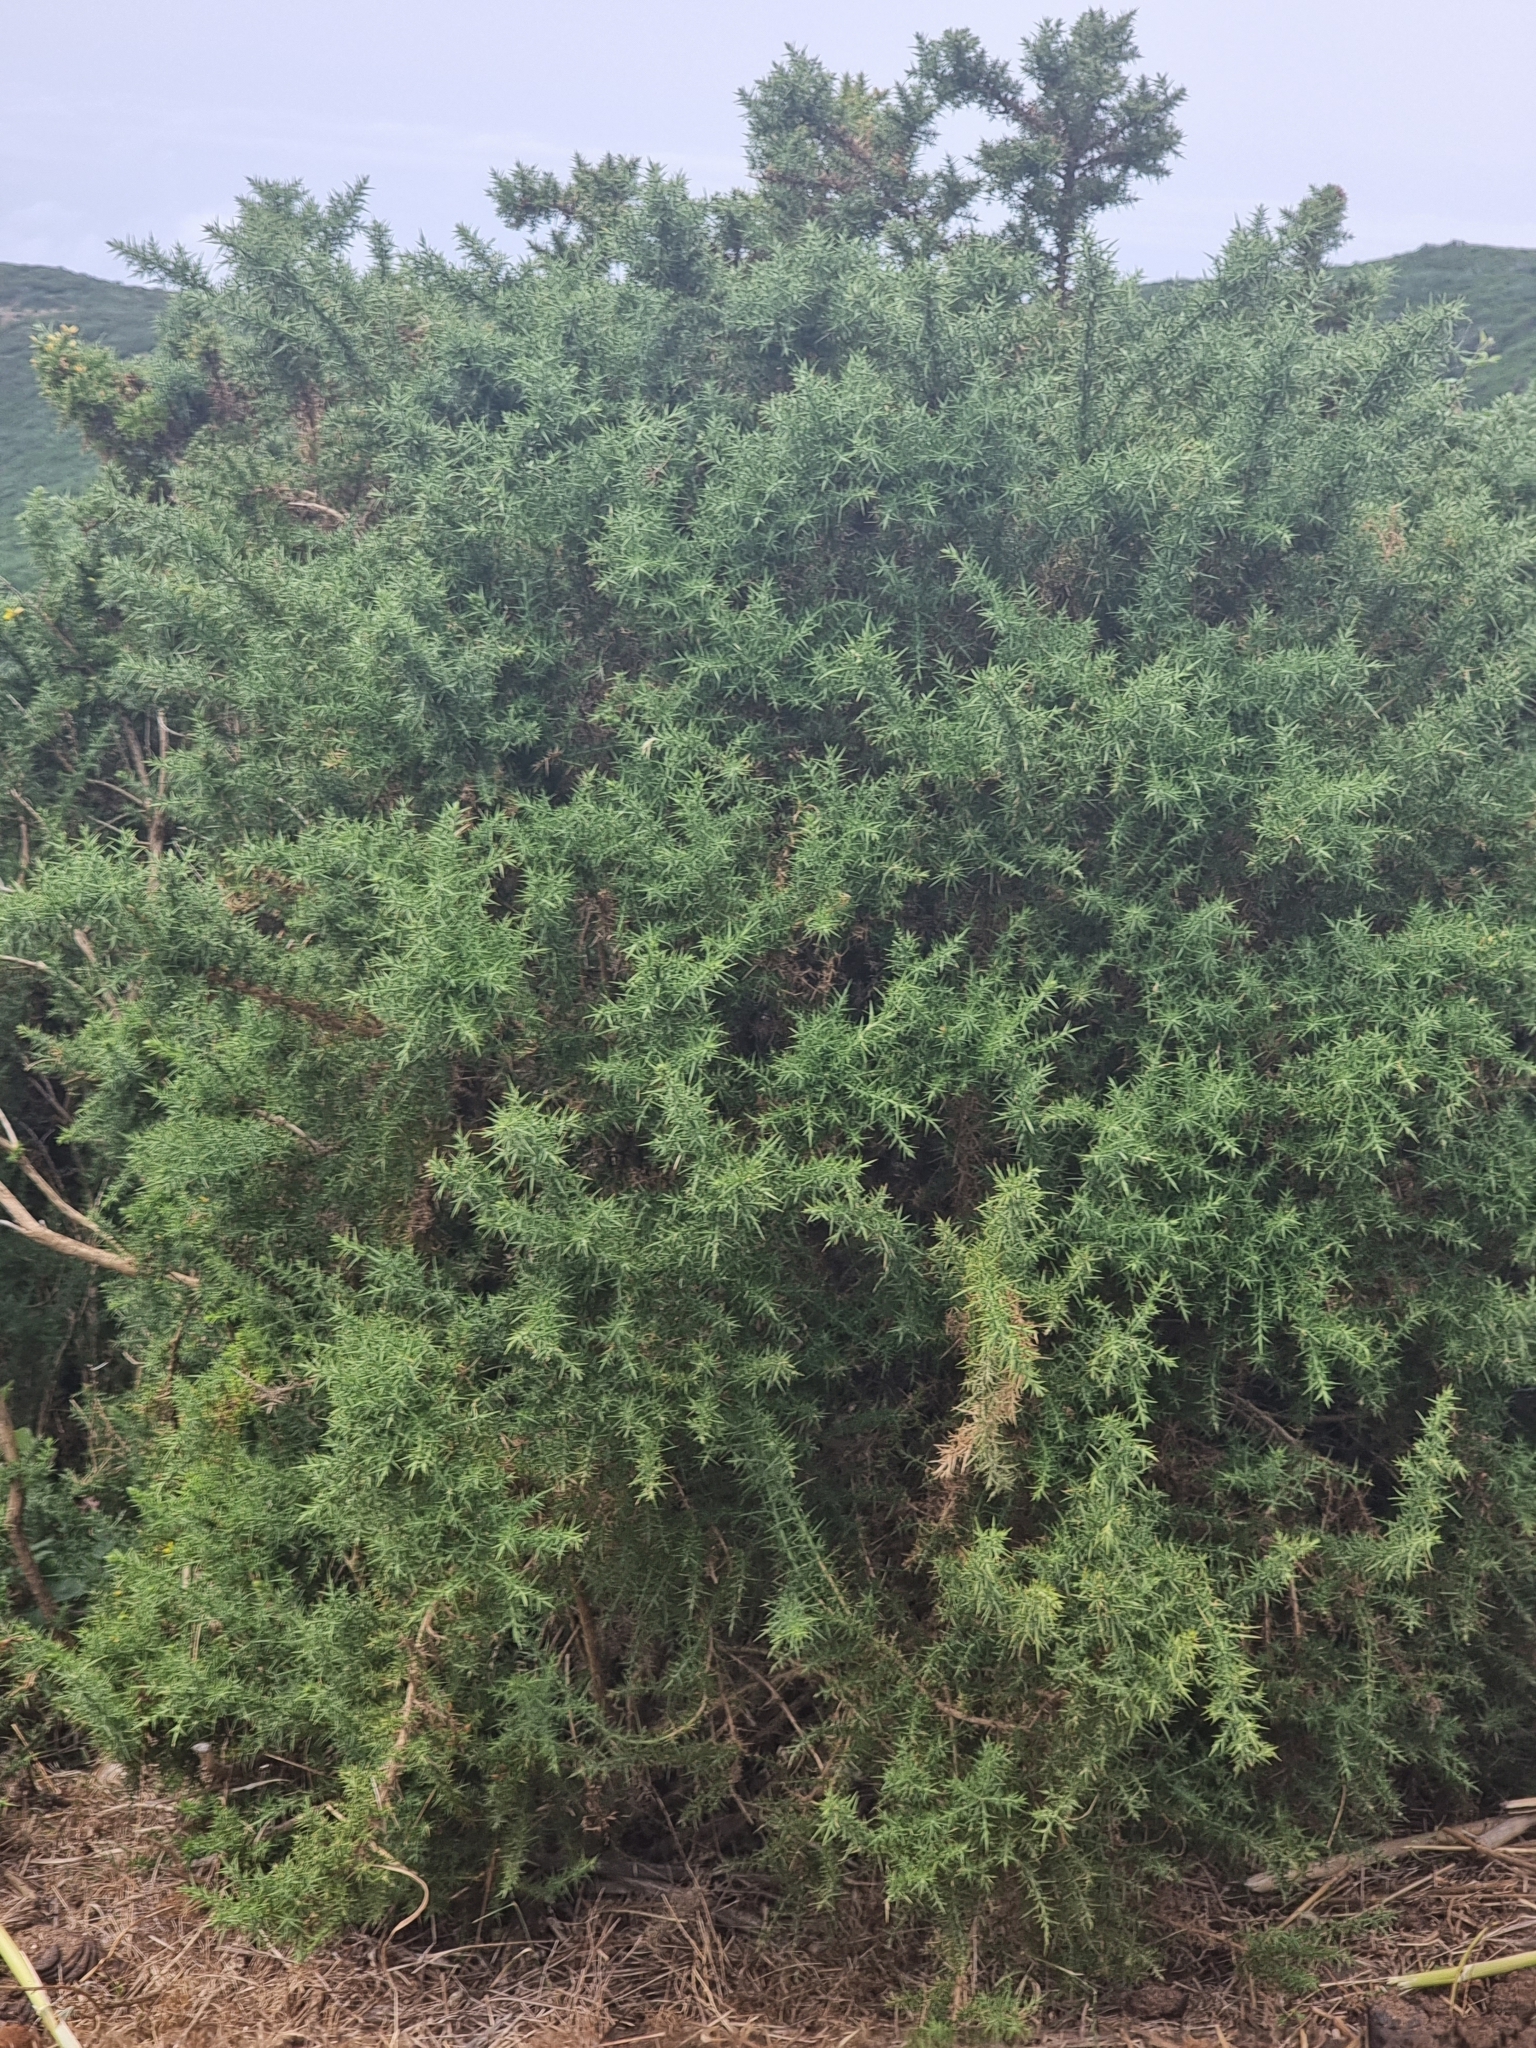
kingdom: Plantae
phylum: Tracheophyta
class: Magnoliopsida
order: Fabales
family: Fabaceae
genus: Ulex
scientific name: Ulex europaeus
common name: Common gorse
